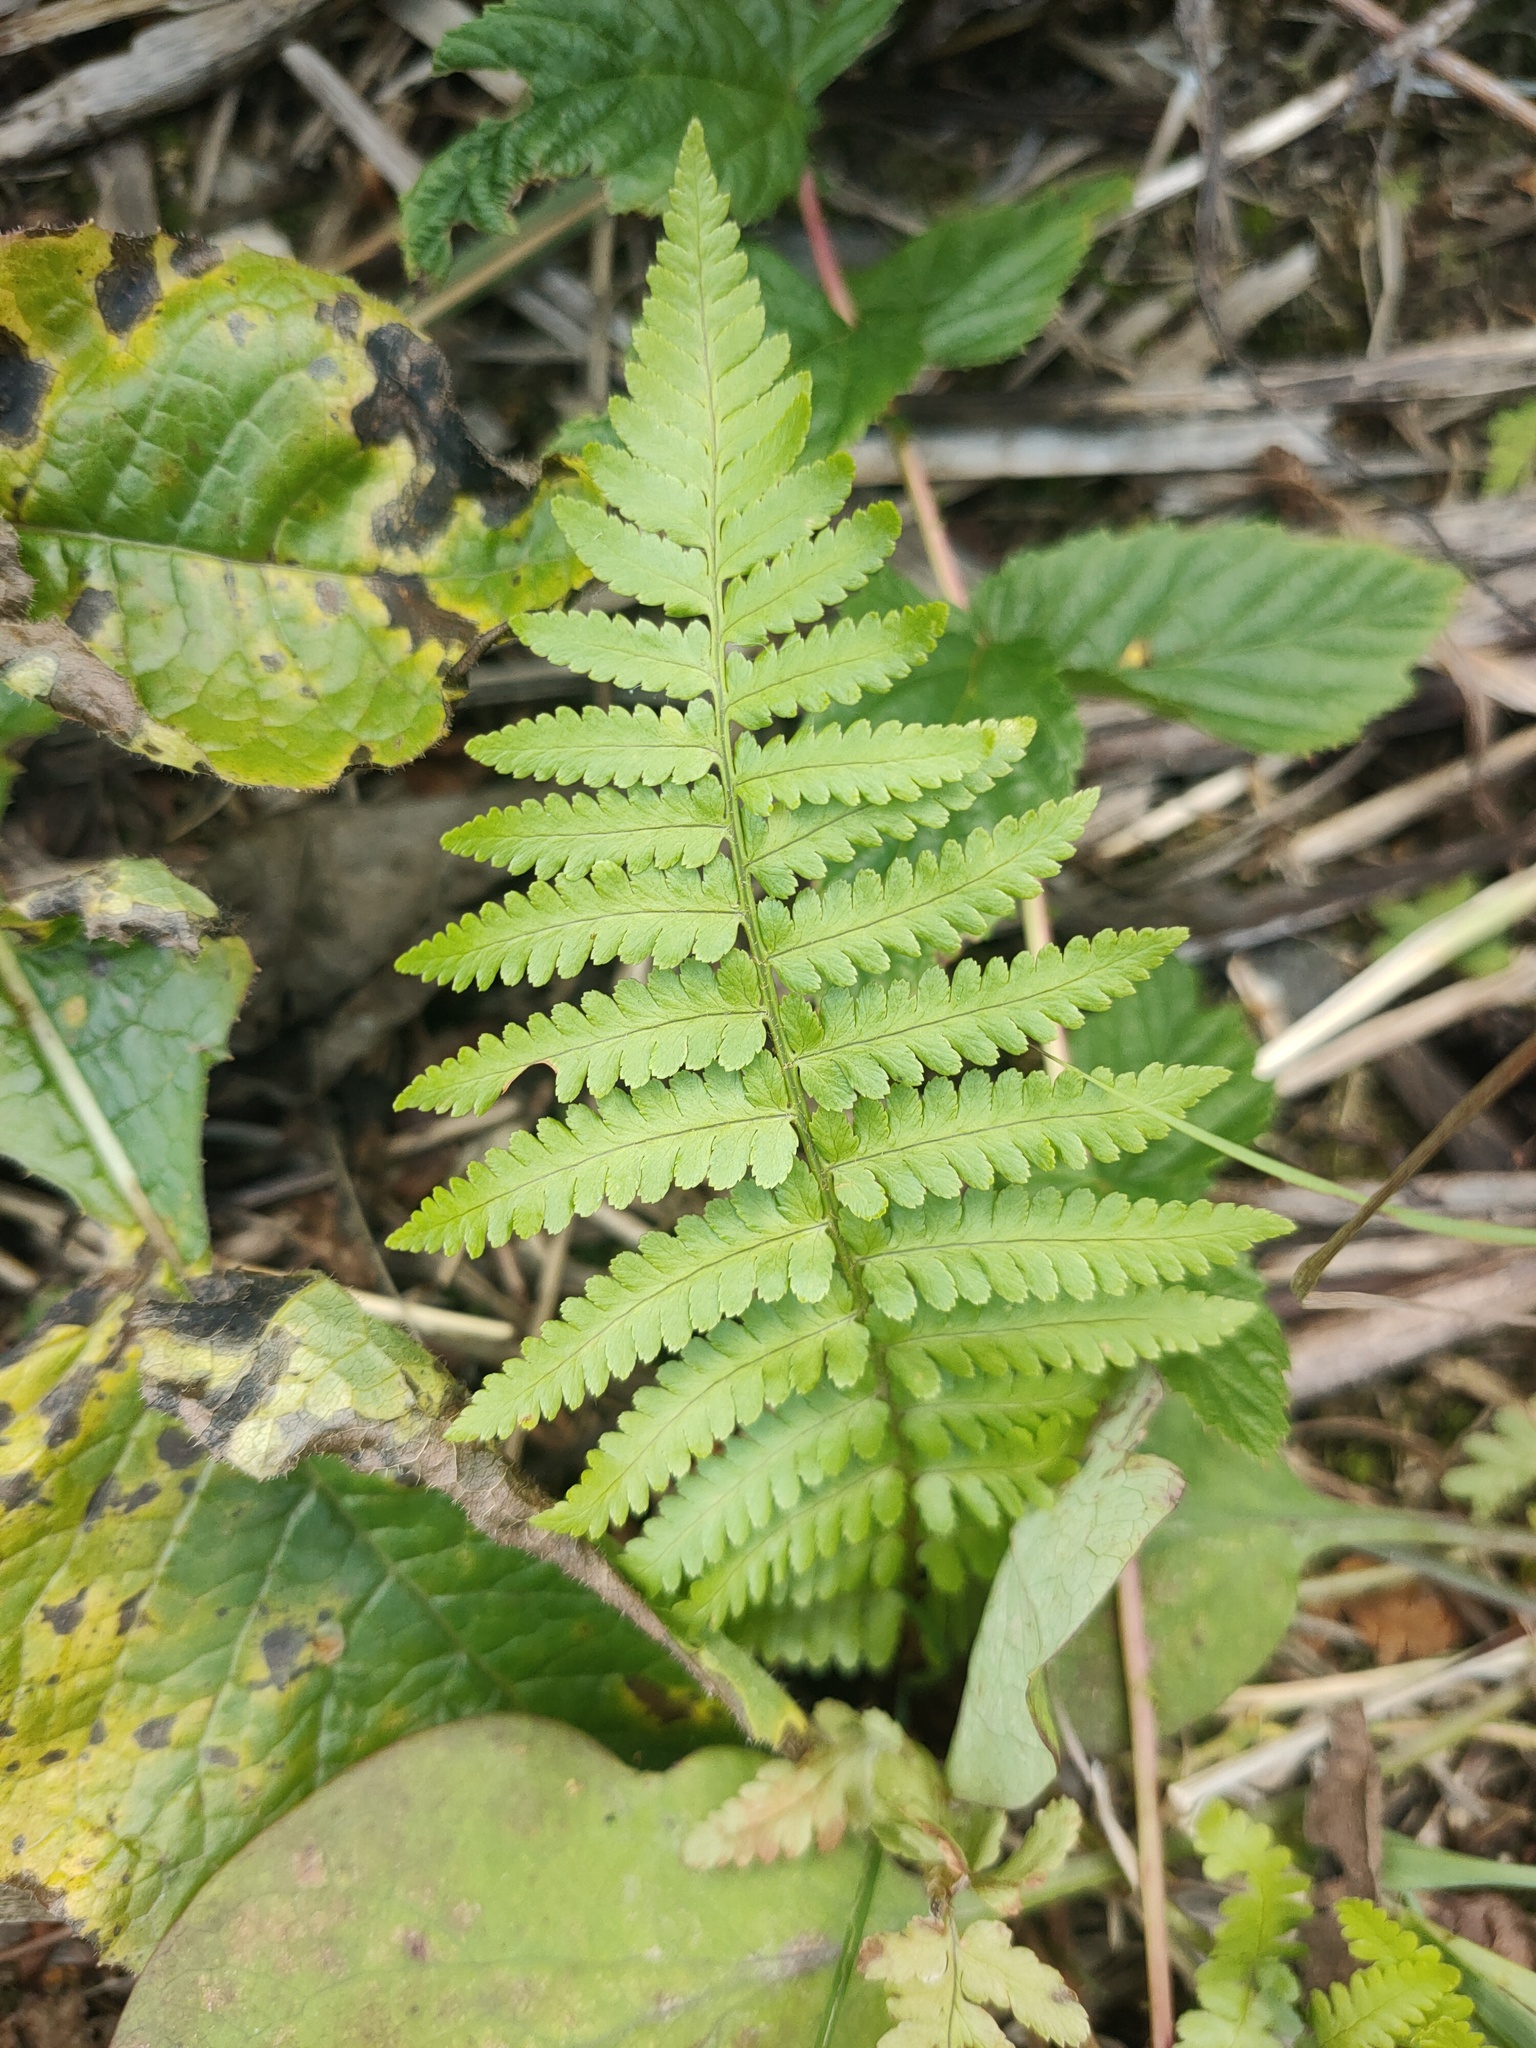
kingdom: Plantae
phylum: Tracheophyta
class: Polypodiopsida
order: Polypodiales
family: Dryopteridaceae
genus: Dryopteris
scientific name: Dryopteris filix-mas
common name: Male fern
